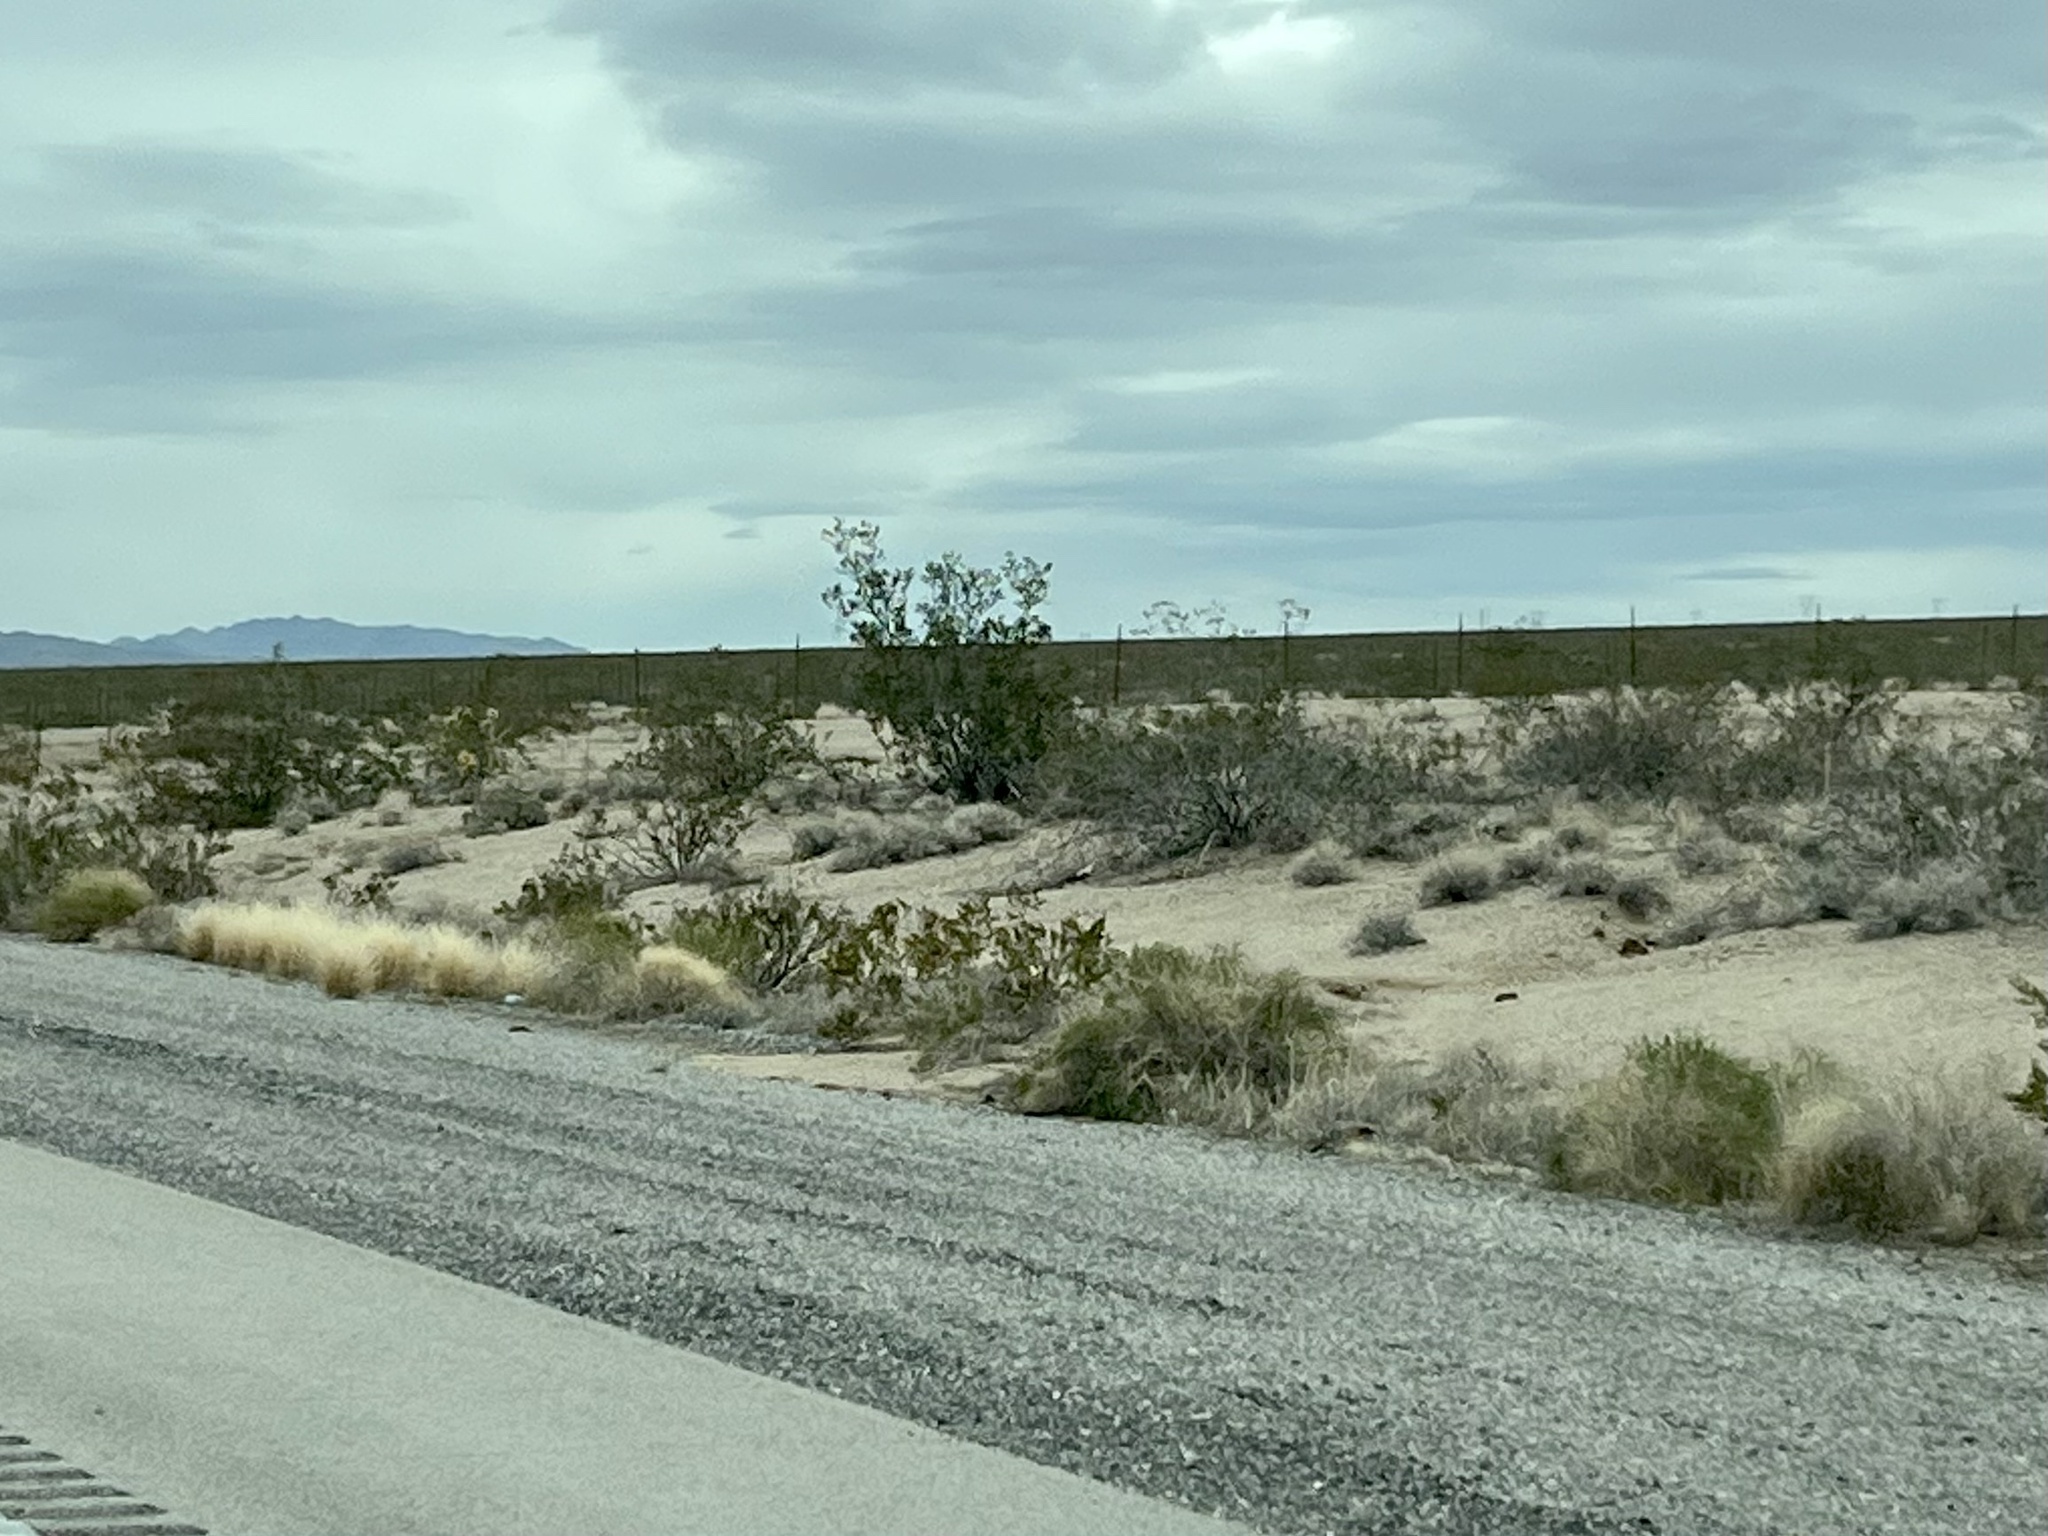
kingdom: Plantae
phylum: Tracheophyta
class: Magnoliopsida
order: Zygophyllales
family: Zygophyllaceae
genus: Larrea
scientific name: Larrea tridentata
